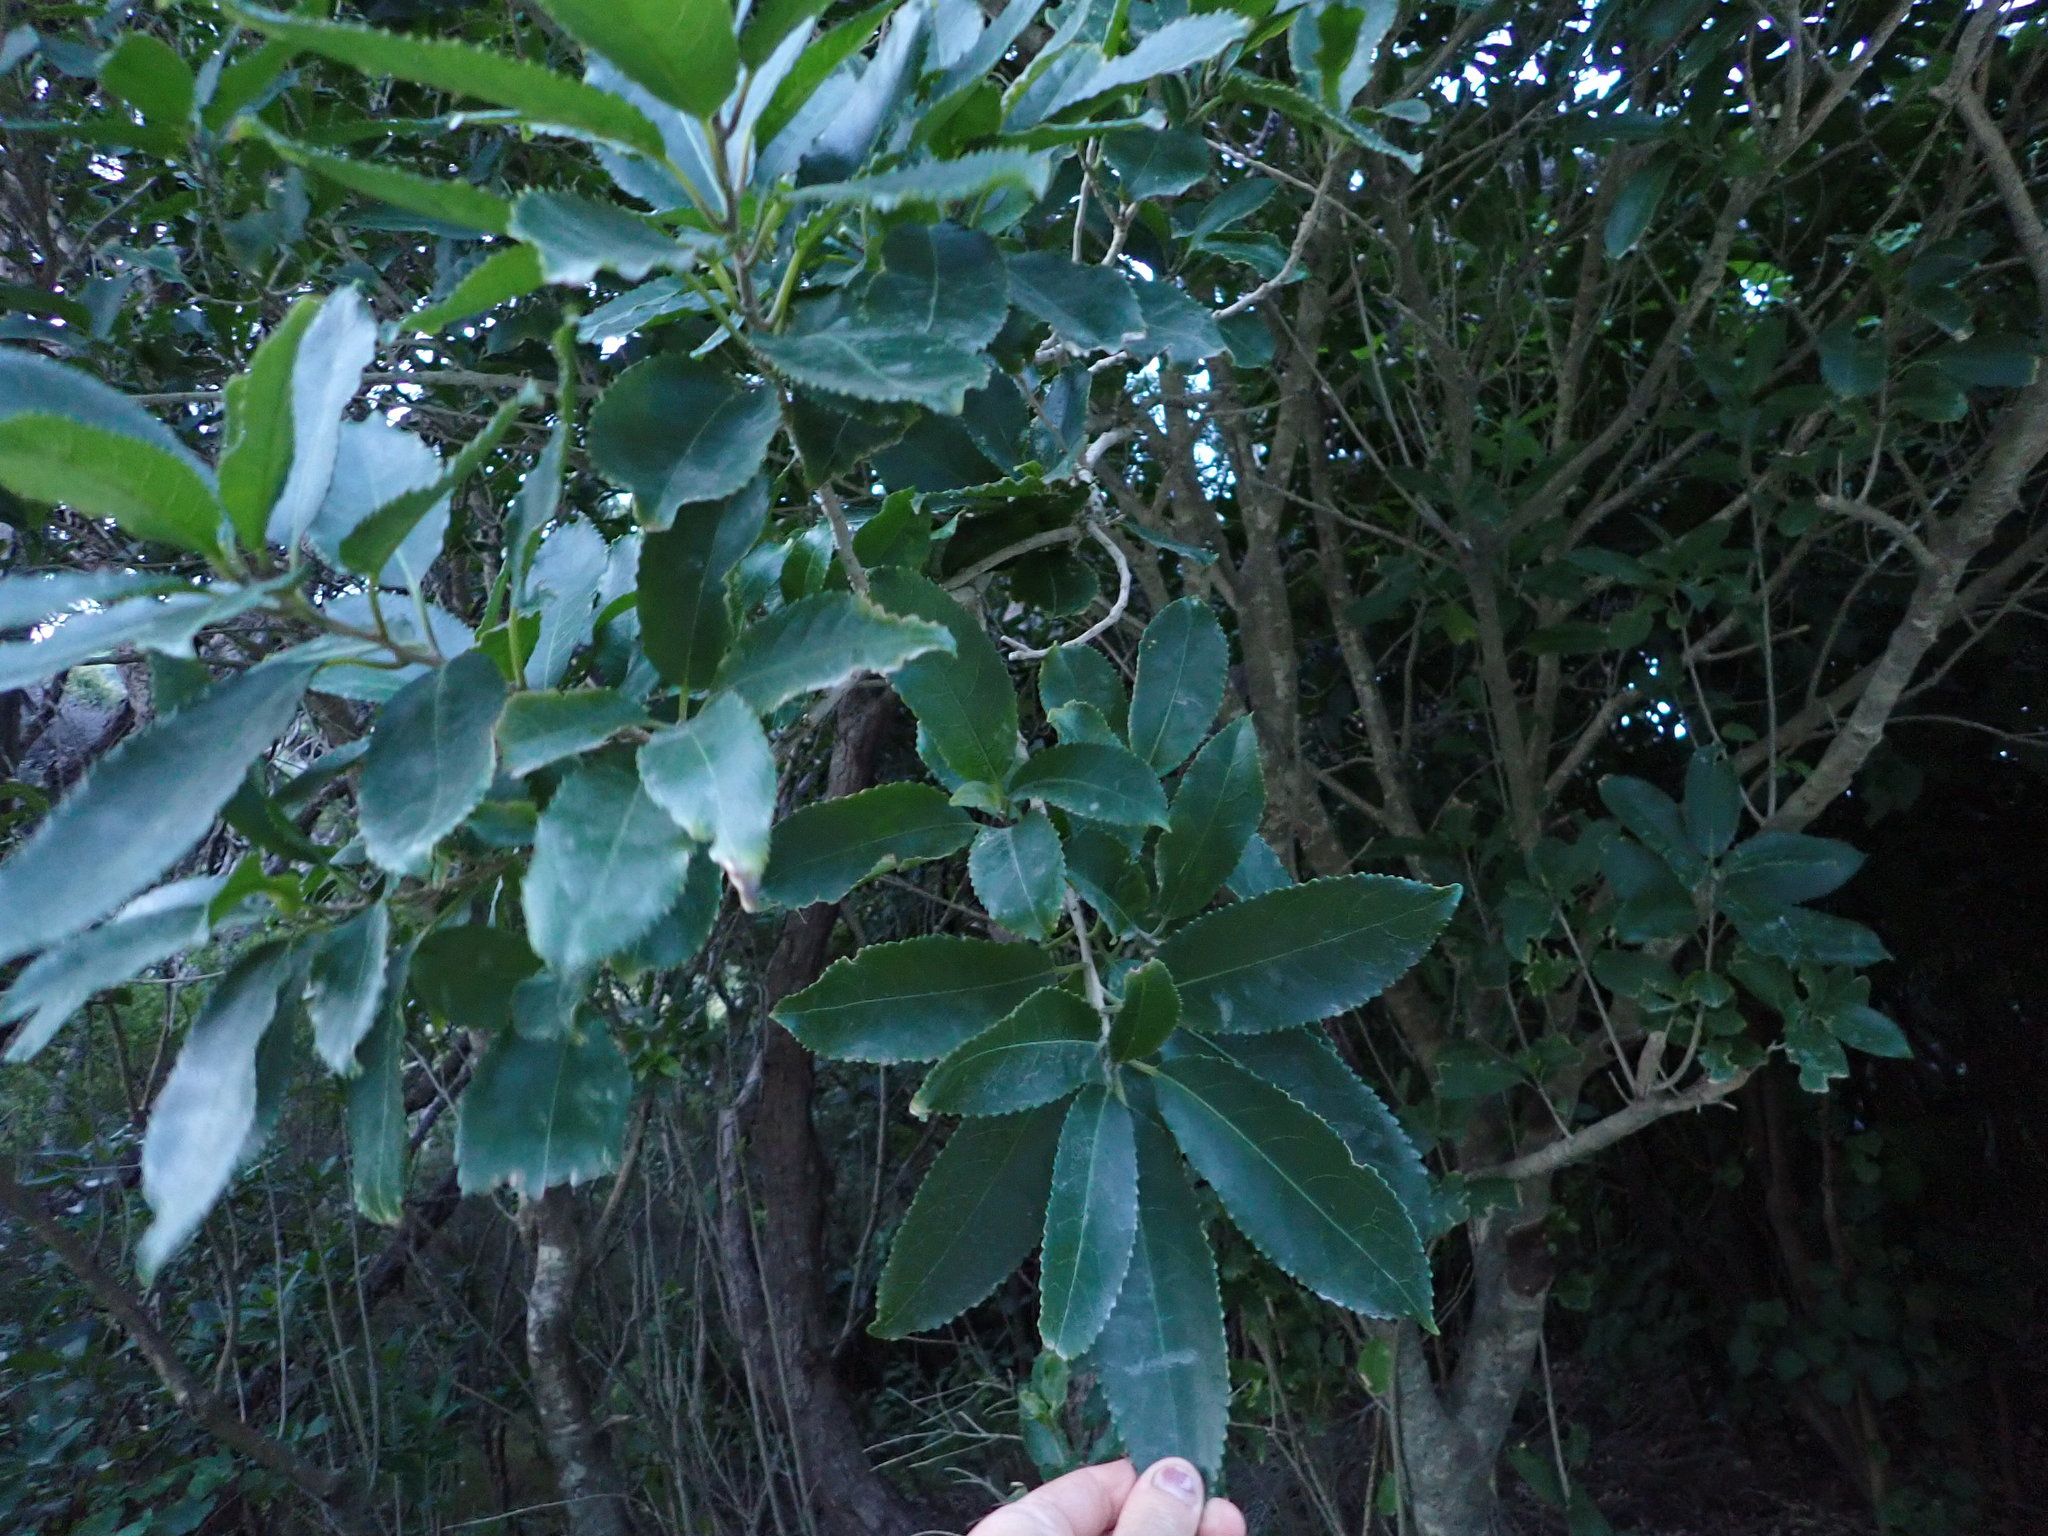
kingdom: Plantae
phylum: Tracheophyta
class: Magnoliopsida
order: Malpighiales
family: Violaceae
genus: Melicytus
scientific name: Melicytus ramiflorus
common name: Mahoe
